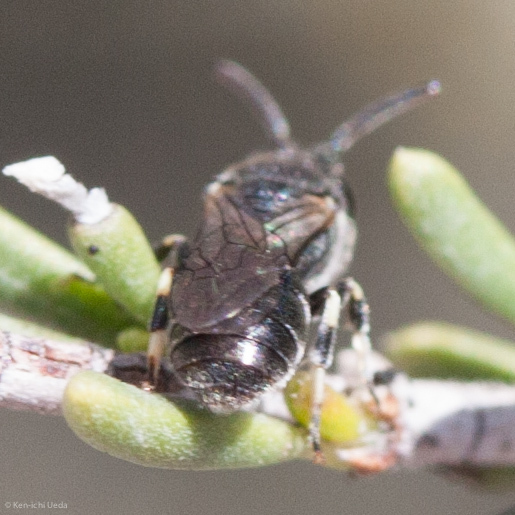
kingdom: Animalia
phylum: Arthropoda
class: Insecta
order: Hymenoptera
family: Colletidae
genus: Hylaeus
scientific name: Hylaeus
